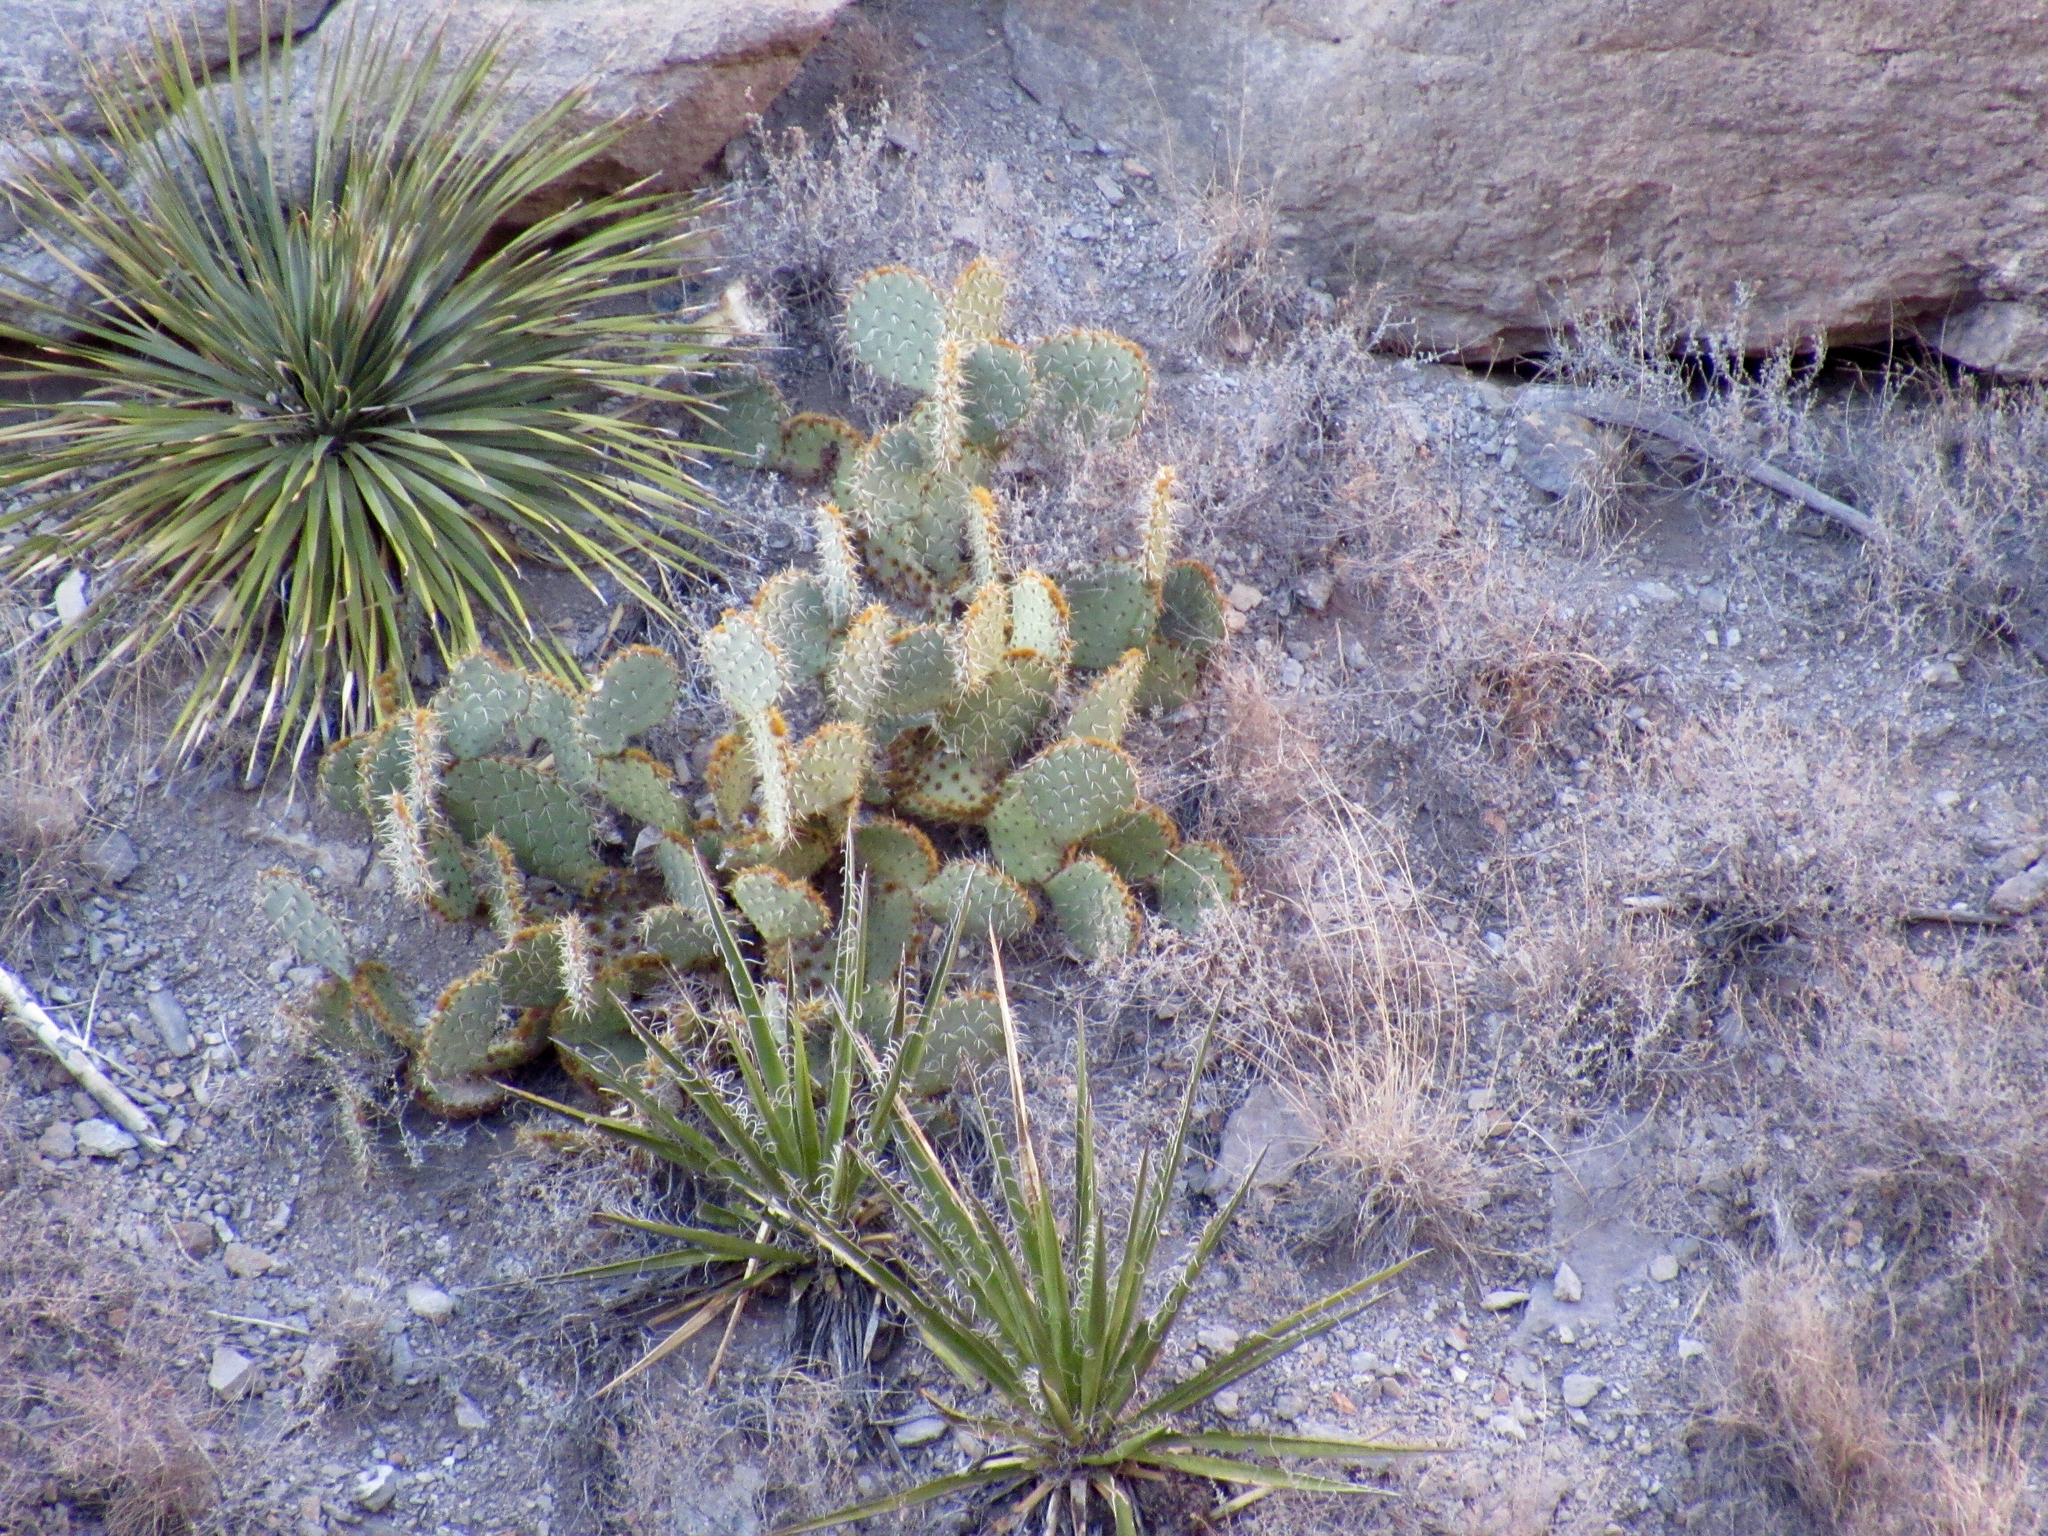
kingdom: Plantae
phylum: Tracheophyta
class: Magnoliopsida
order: Caryophyllales
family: Cactaceae
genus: Opuntia
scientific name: Opuntia engelmannii
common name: Cactus-apple
